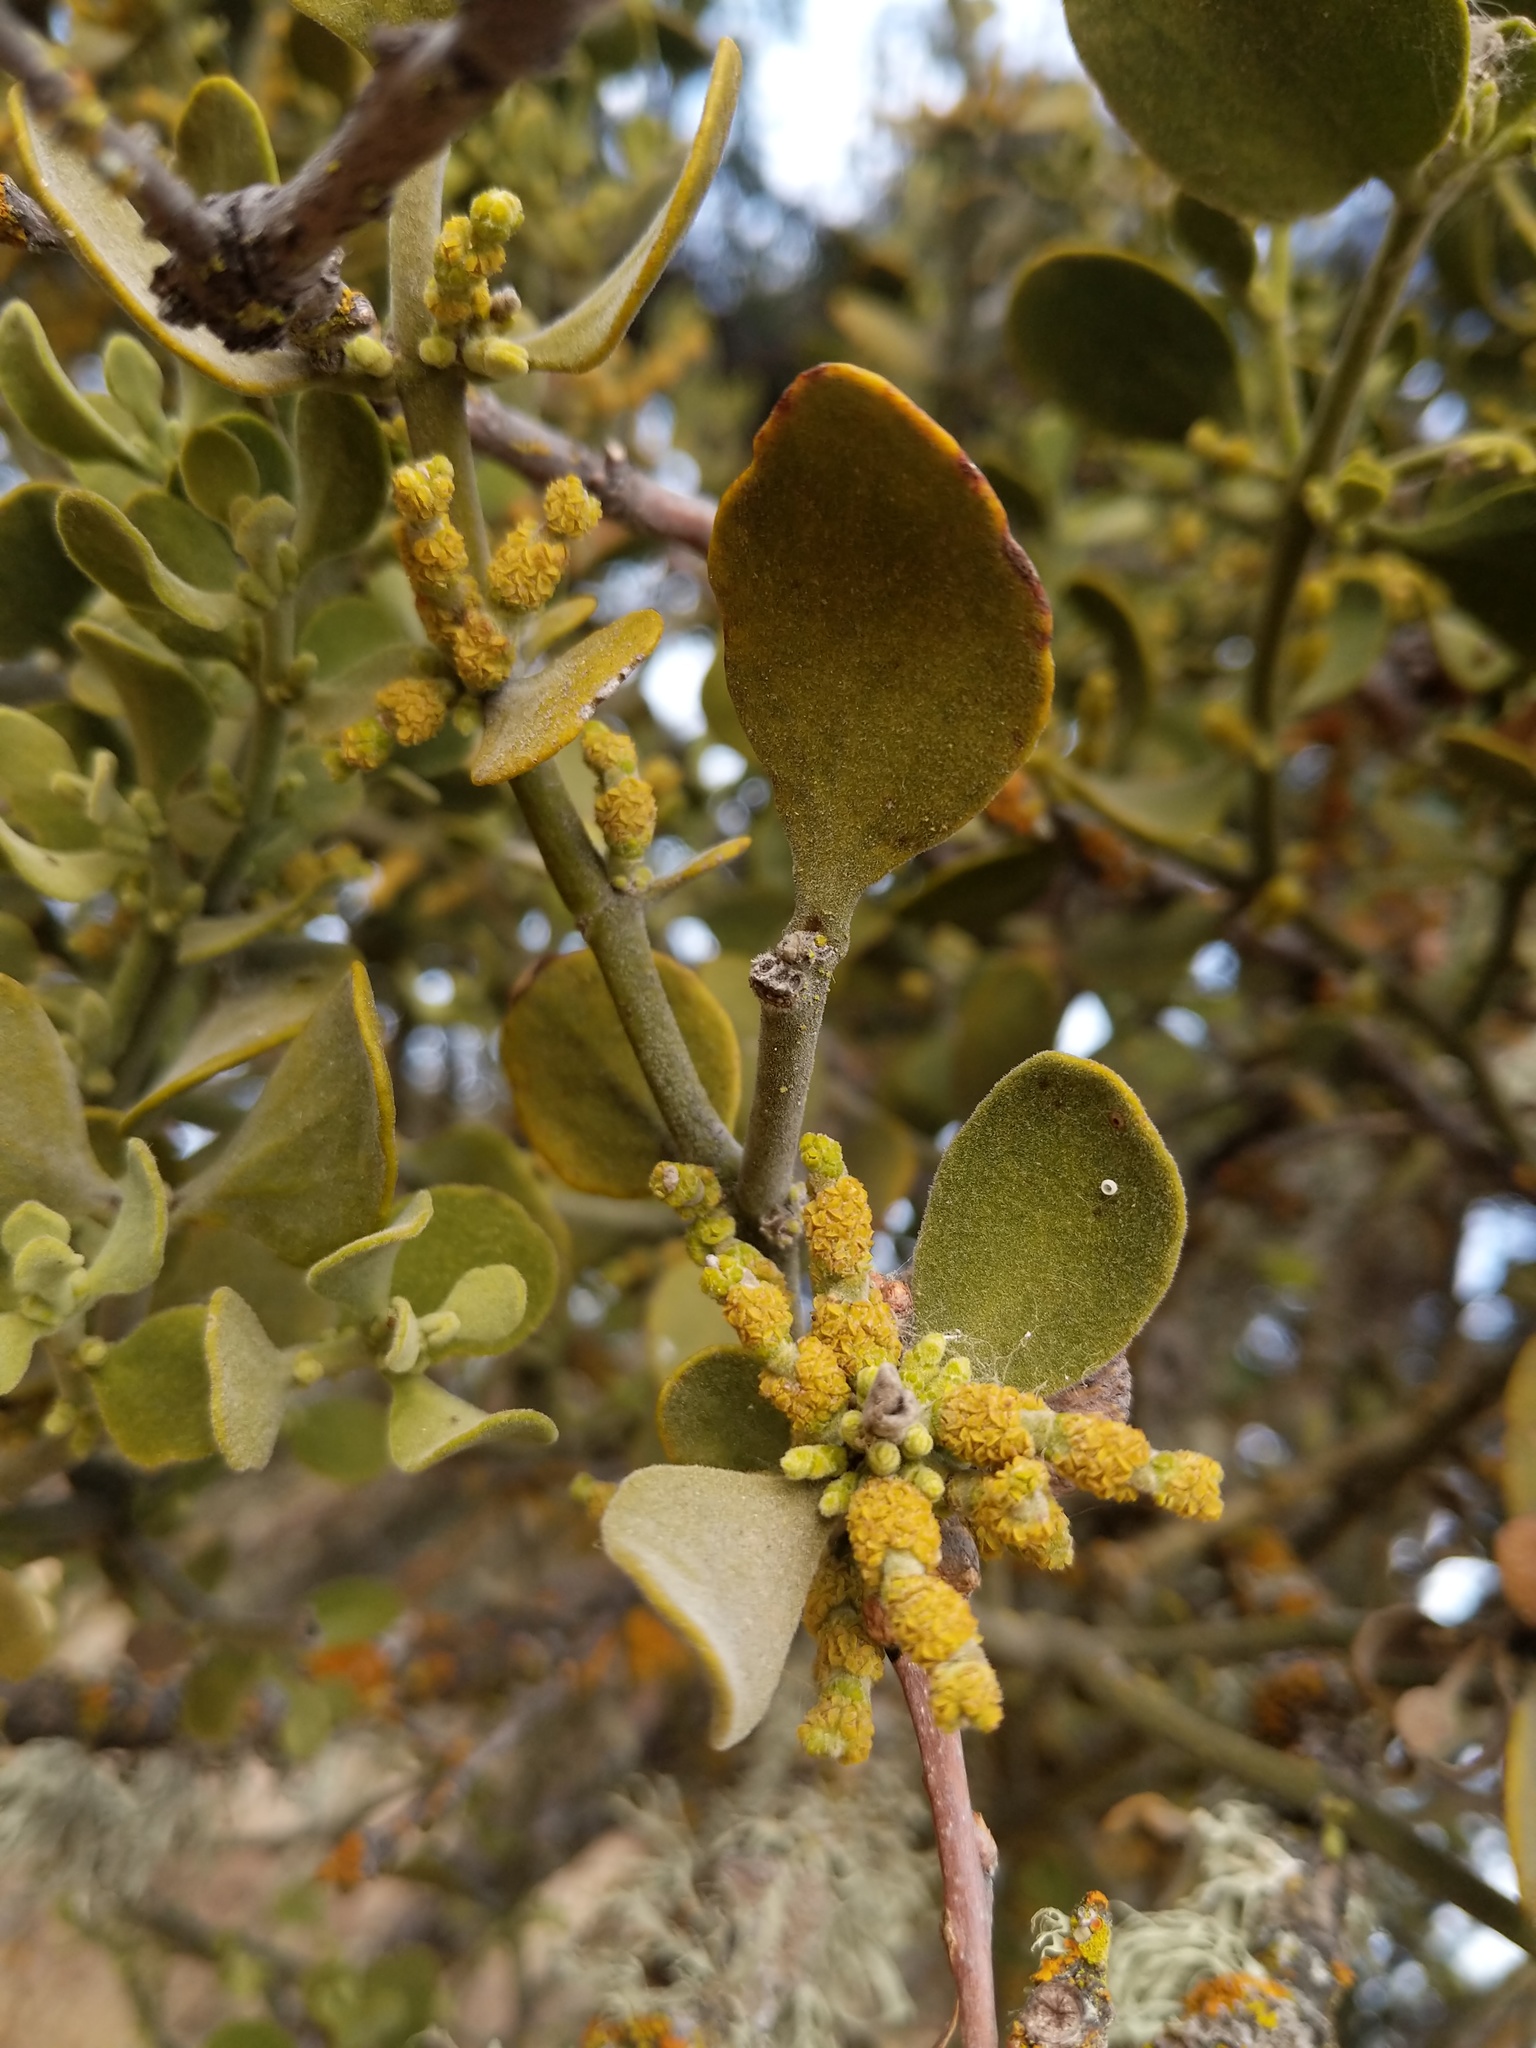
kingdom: Plantae
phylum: Tracheophyta
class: Magnoliopsida
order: Santalales
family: Viscaceae
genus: Phoradendron
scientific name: Phoradendron leucarpum
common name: Pacific mistletoe
